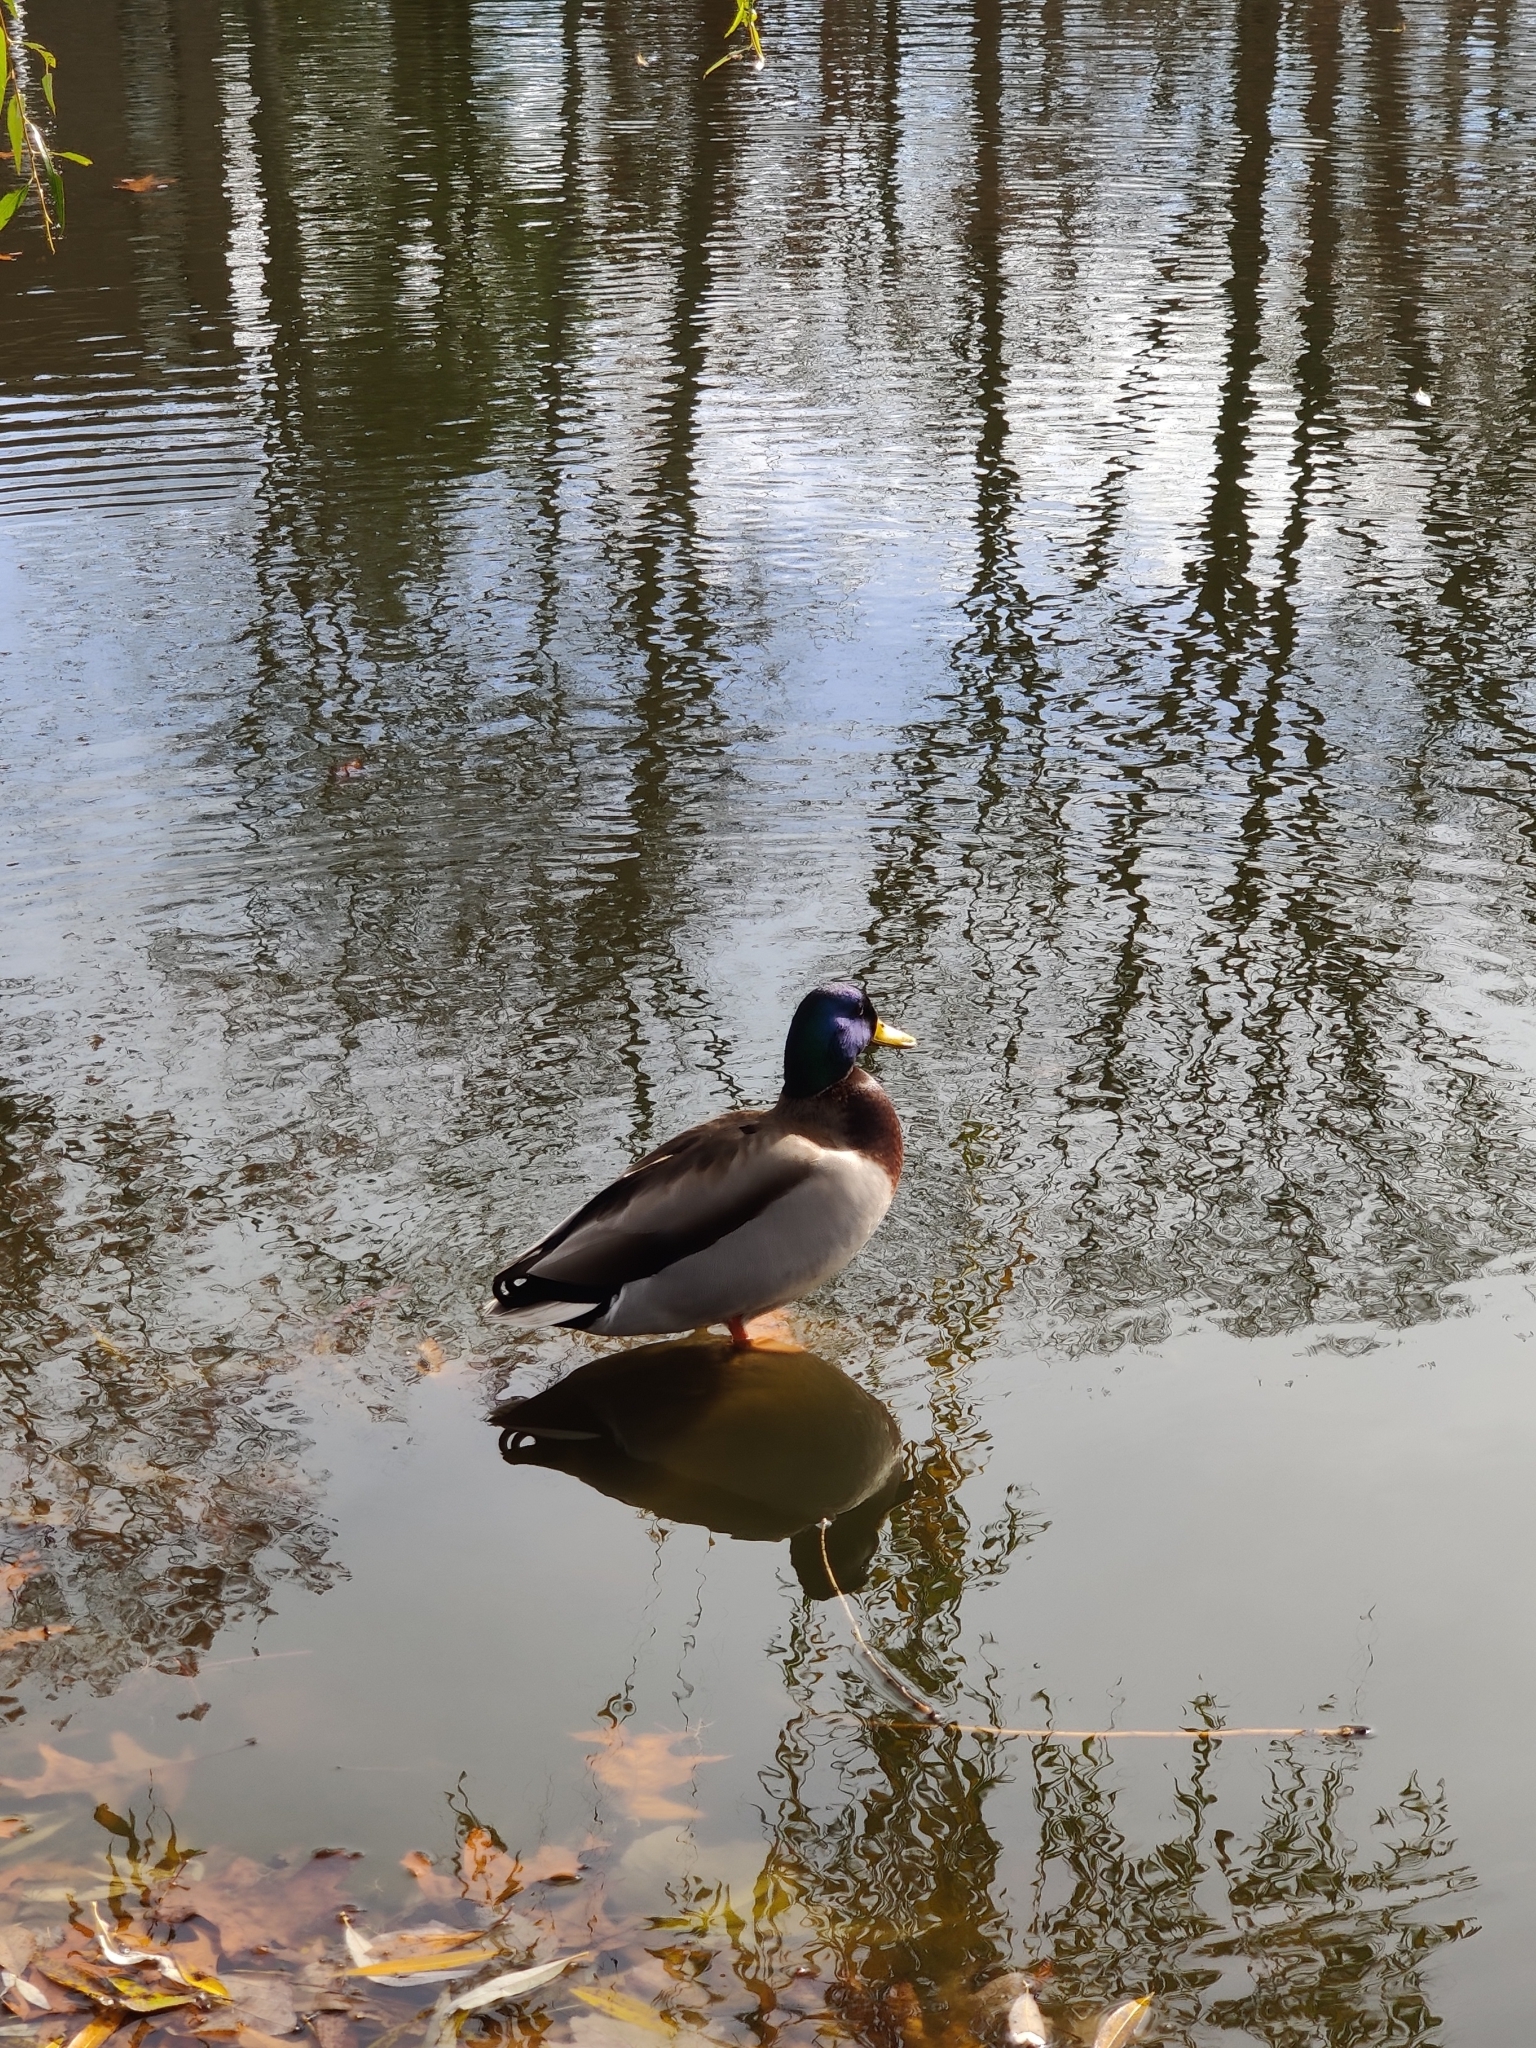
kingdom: Animalia
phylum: Chordata
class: Aves
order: Anseriformes
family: Anatidae
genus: Anas
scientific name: Anas platyrhynchos
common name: Mallard
